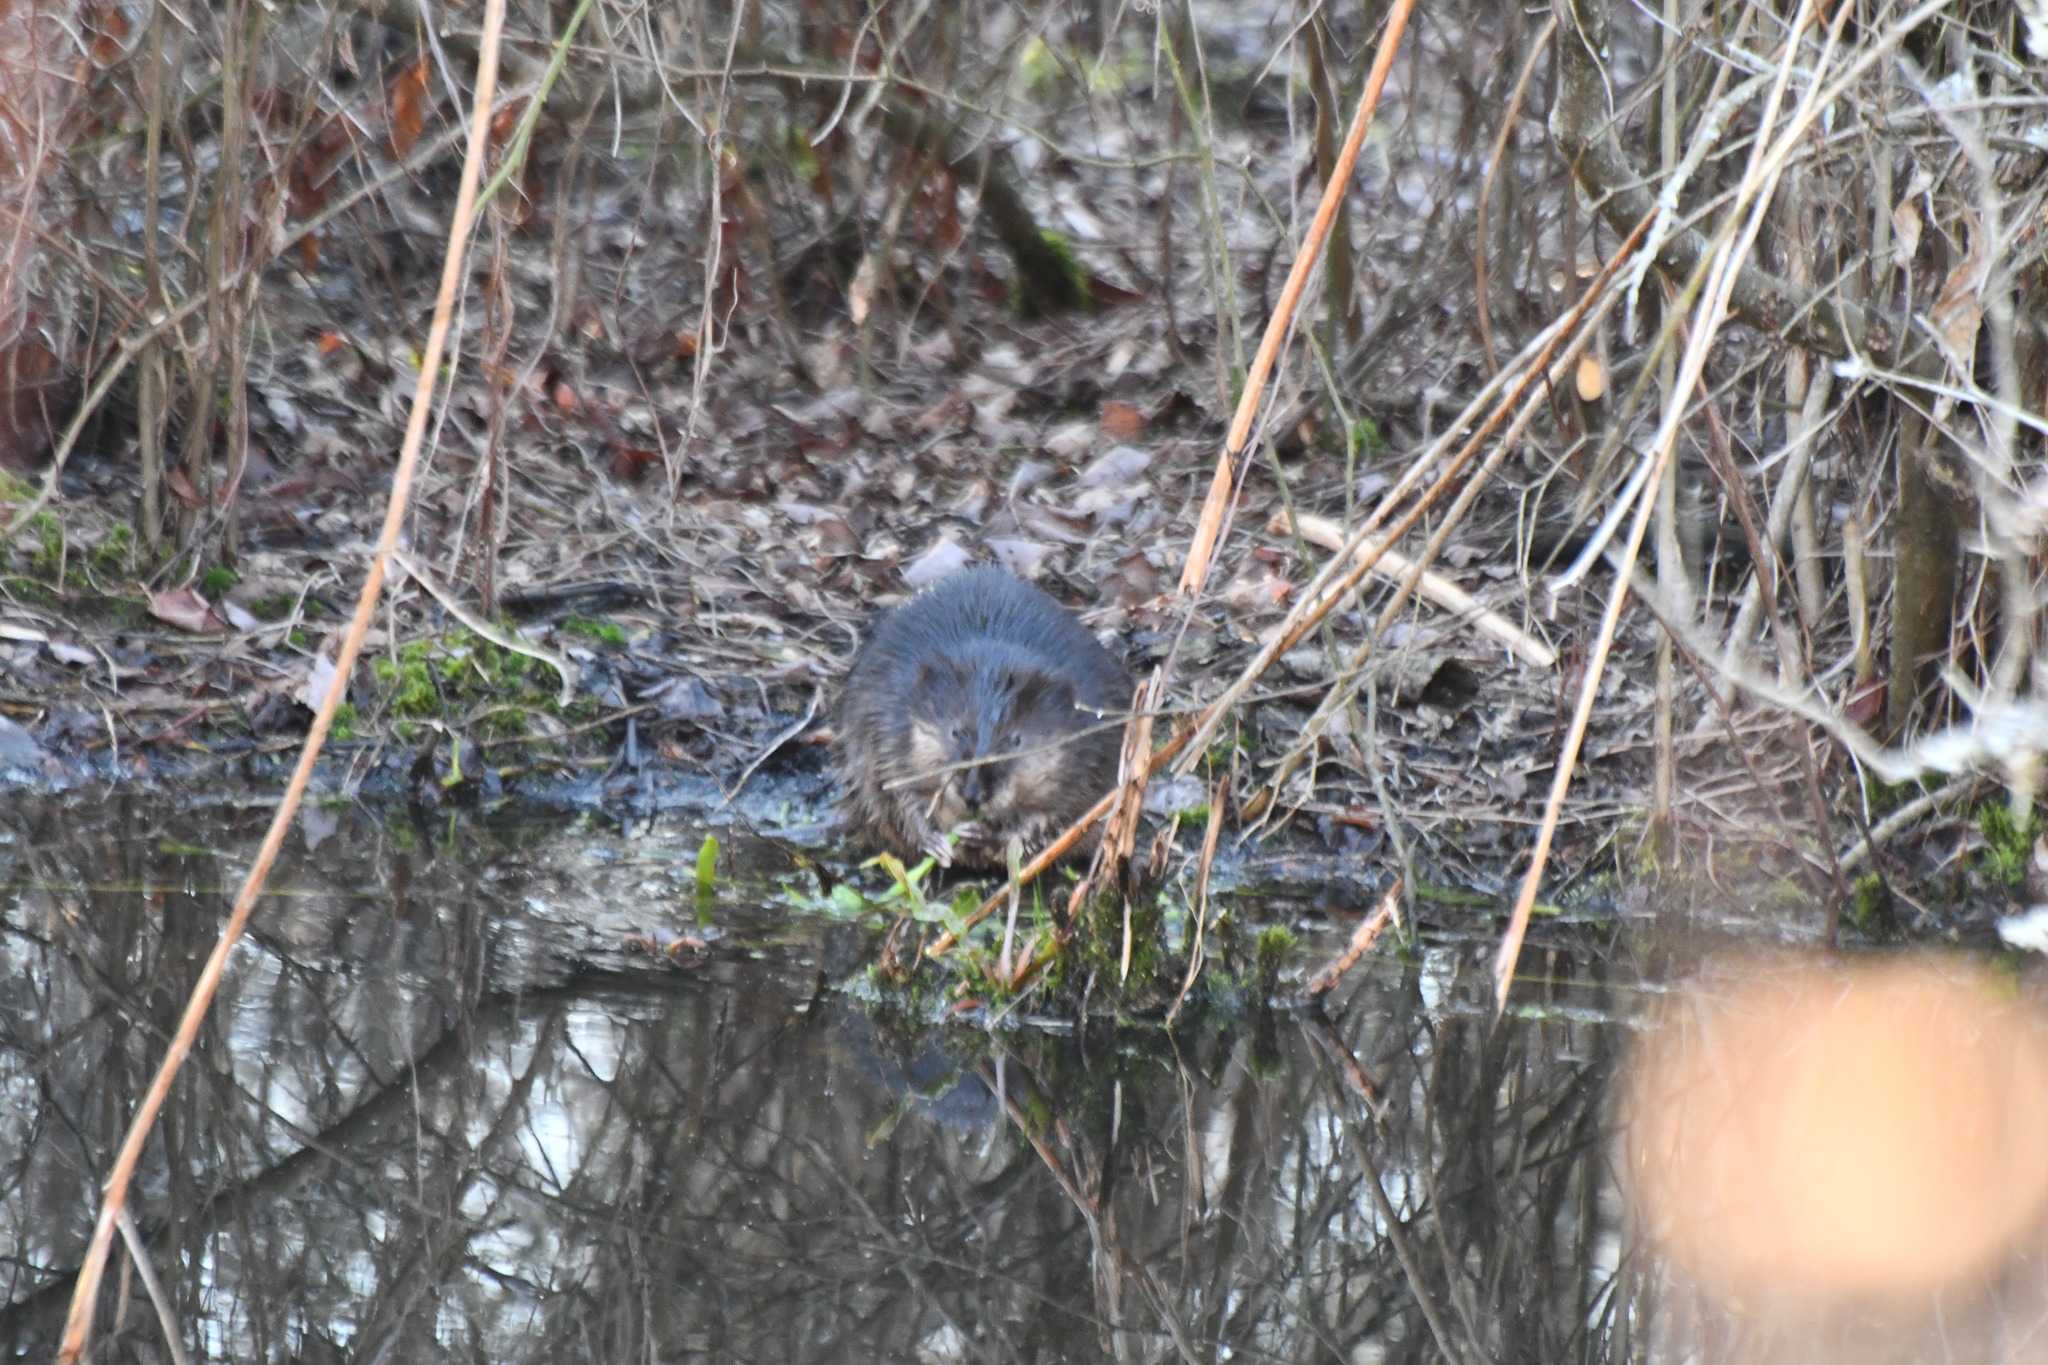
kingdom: Animalia
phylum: Chordata
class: Mammalia
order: Rodentia
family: Cricetidae
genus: Ondatra
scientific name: Ondatra zibethicus
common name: Muskrat
